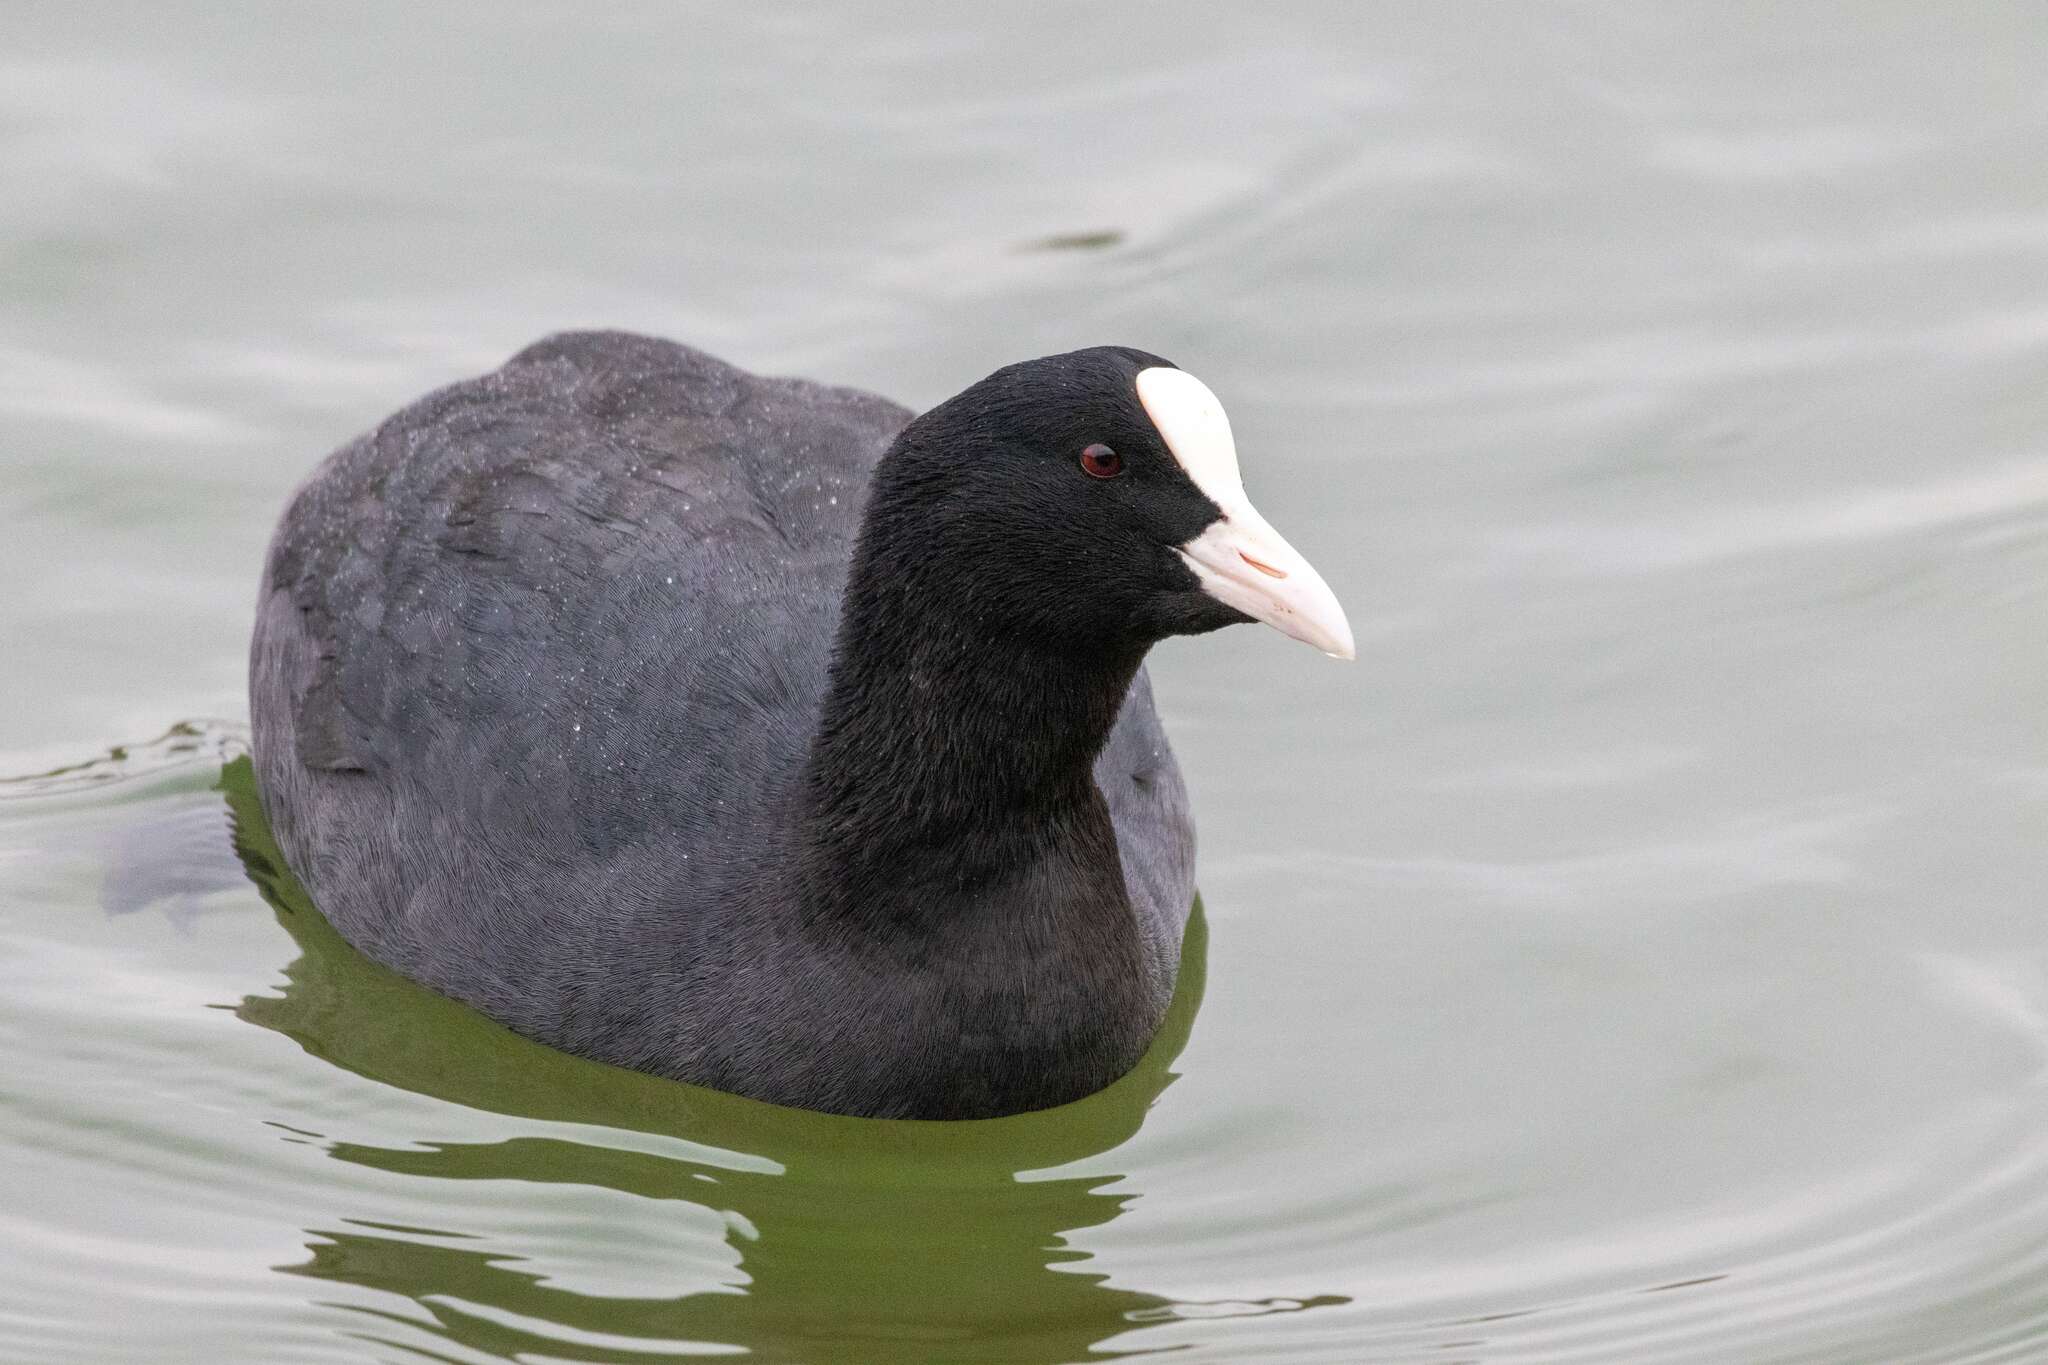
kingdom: Animalia
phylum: Chordata
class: Aves
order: Gruiformes
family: Rallidae
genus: Fulica
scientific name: Fulica atra
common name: Eurasian coot
